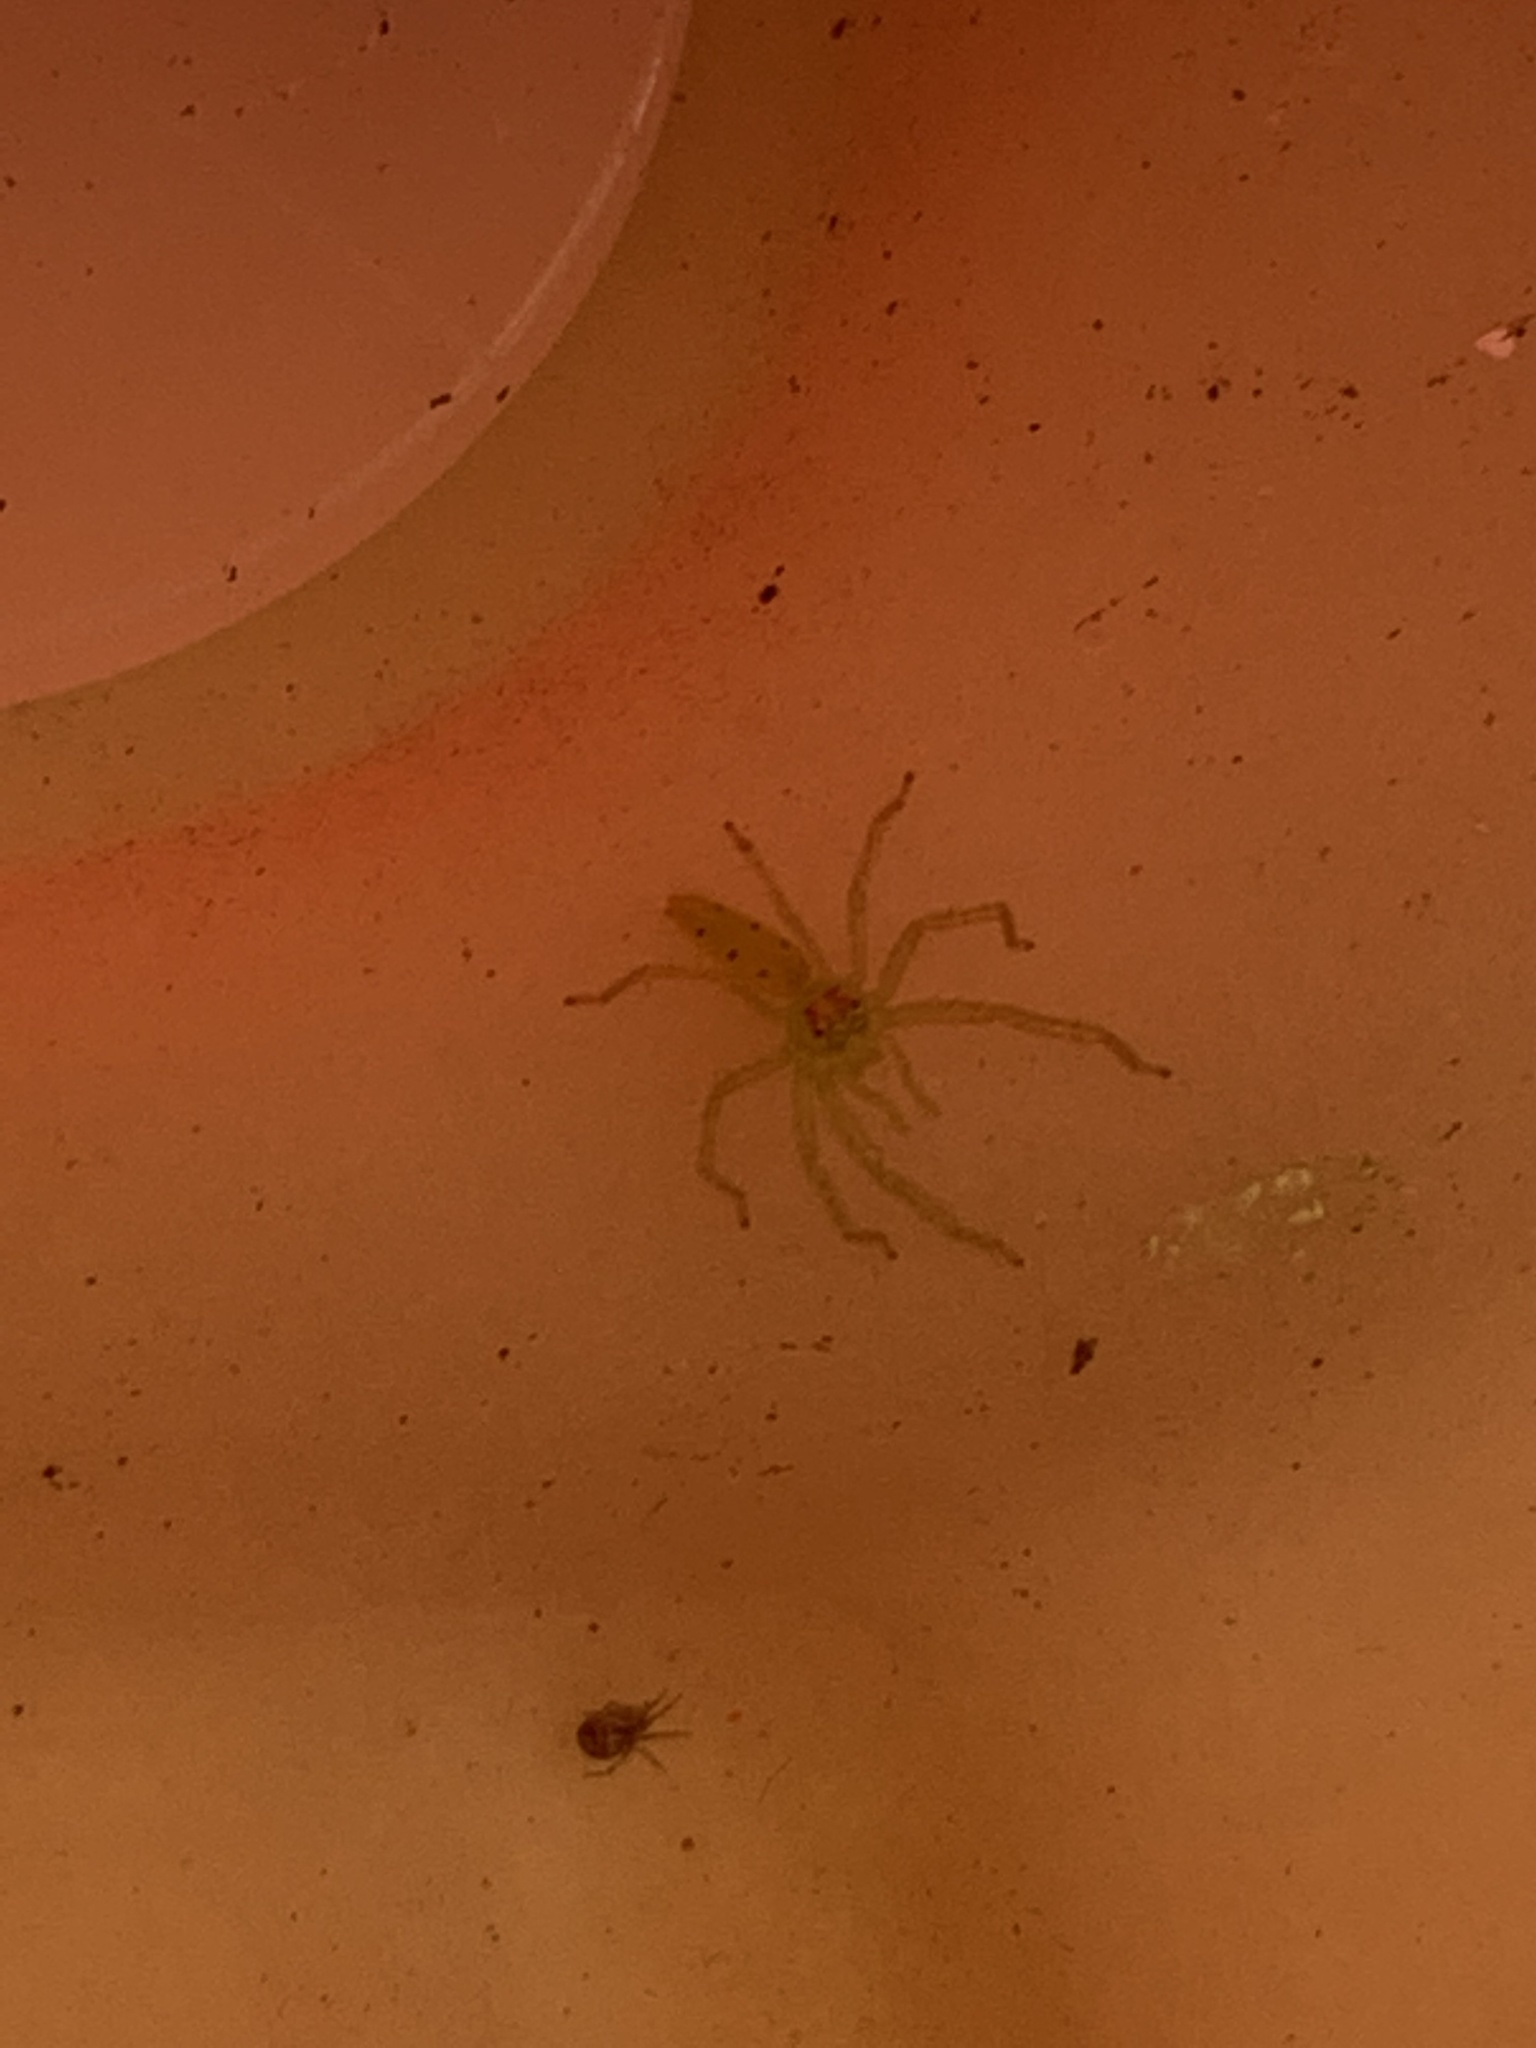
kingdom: Animalia
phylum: Arthropoda
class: Arachnida
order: Araneae
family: Salticidae
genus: Lyssomanes
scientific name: Lyssomanes viridis
